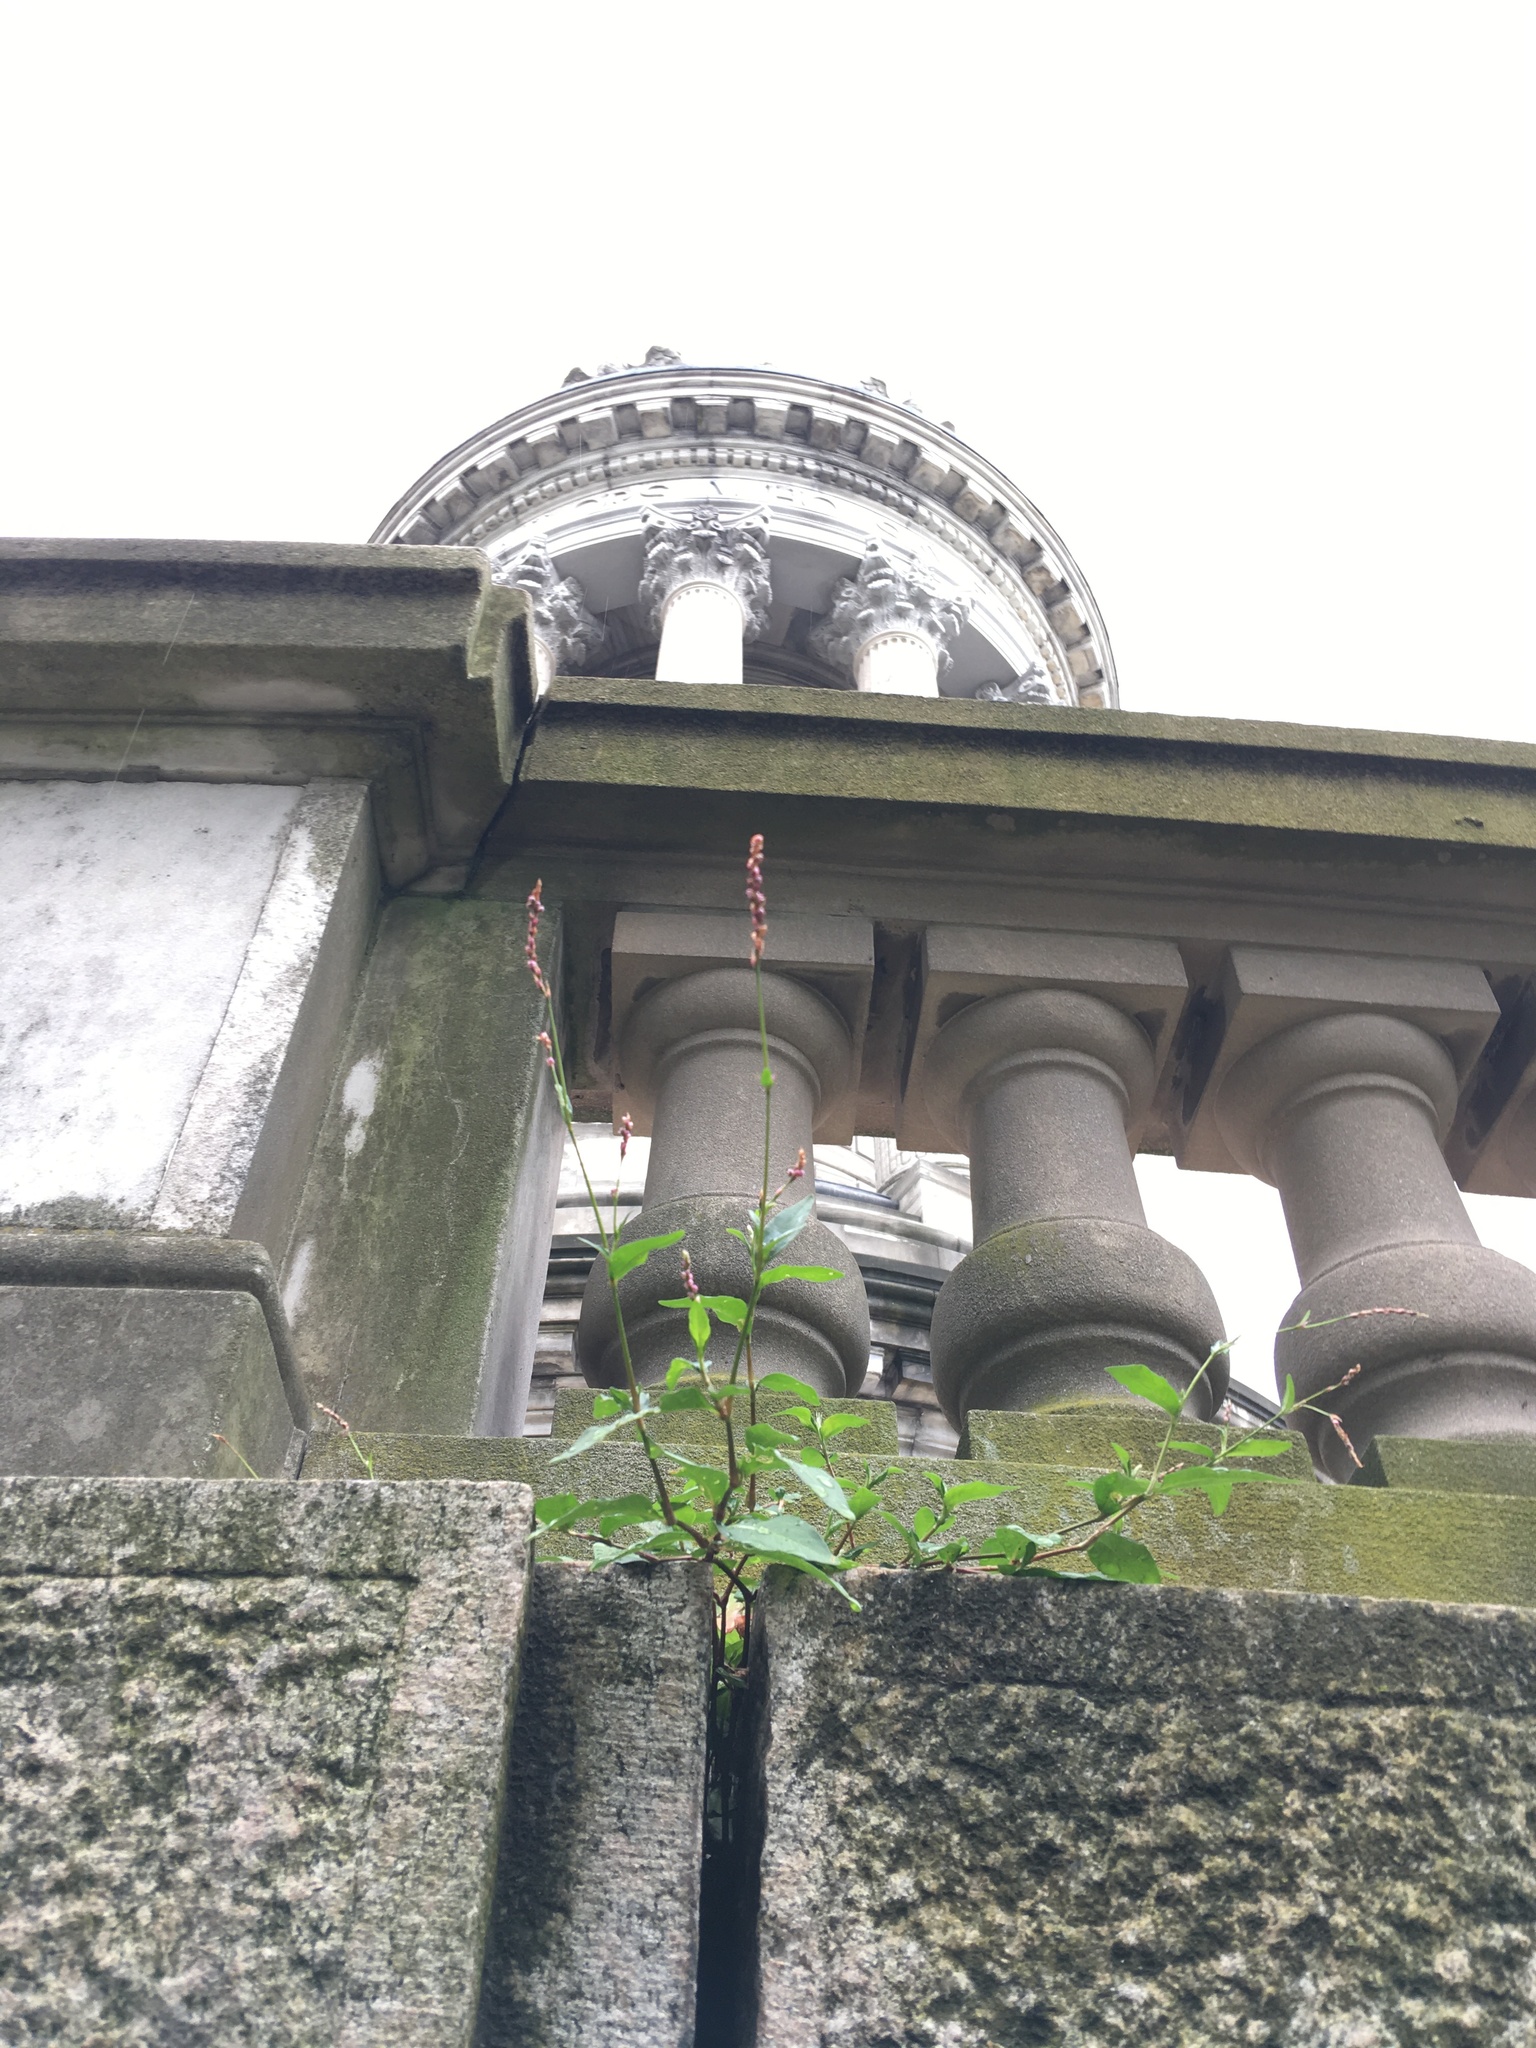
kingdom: Plantae
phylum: Tracheophyta
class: Magnoliopsida
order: Caryophyllales
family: Polygonaceae
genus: Persicaria
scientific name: Persicaria longiseta
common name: Bristly lady's-thumb
